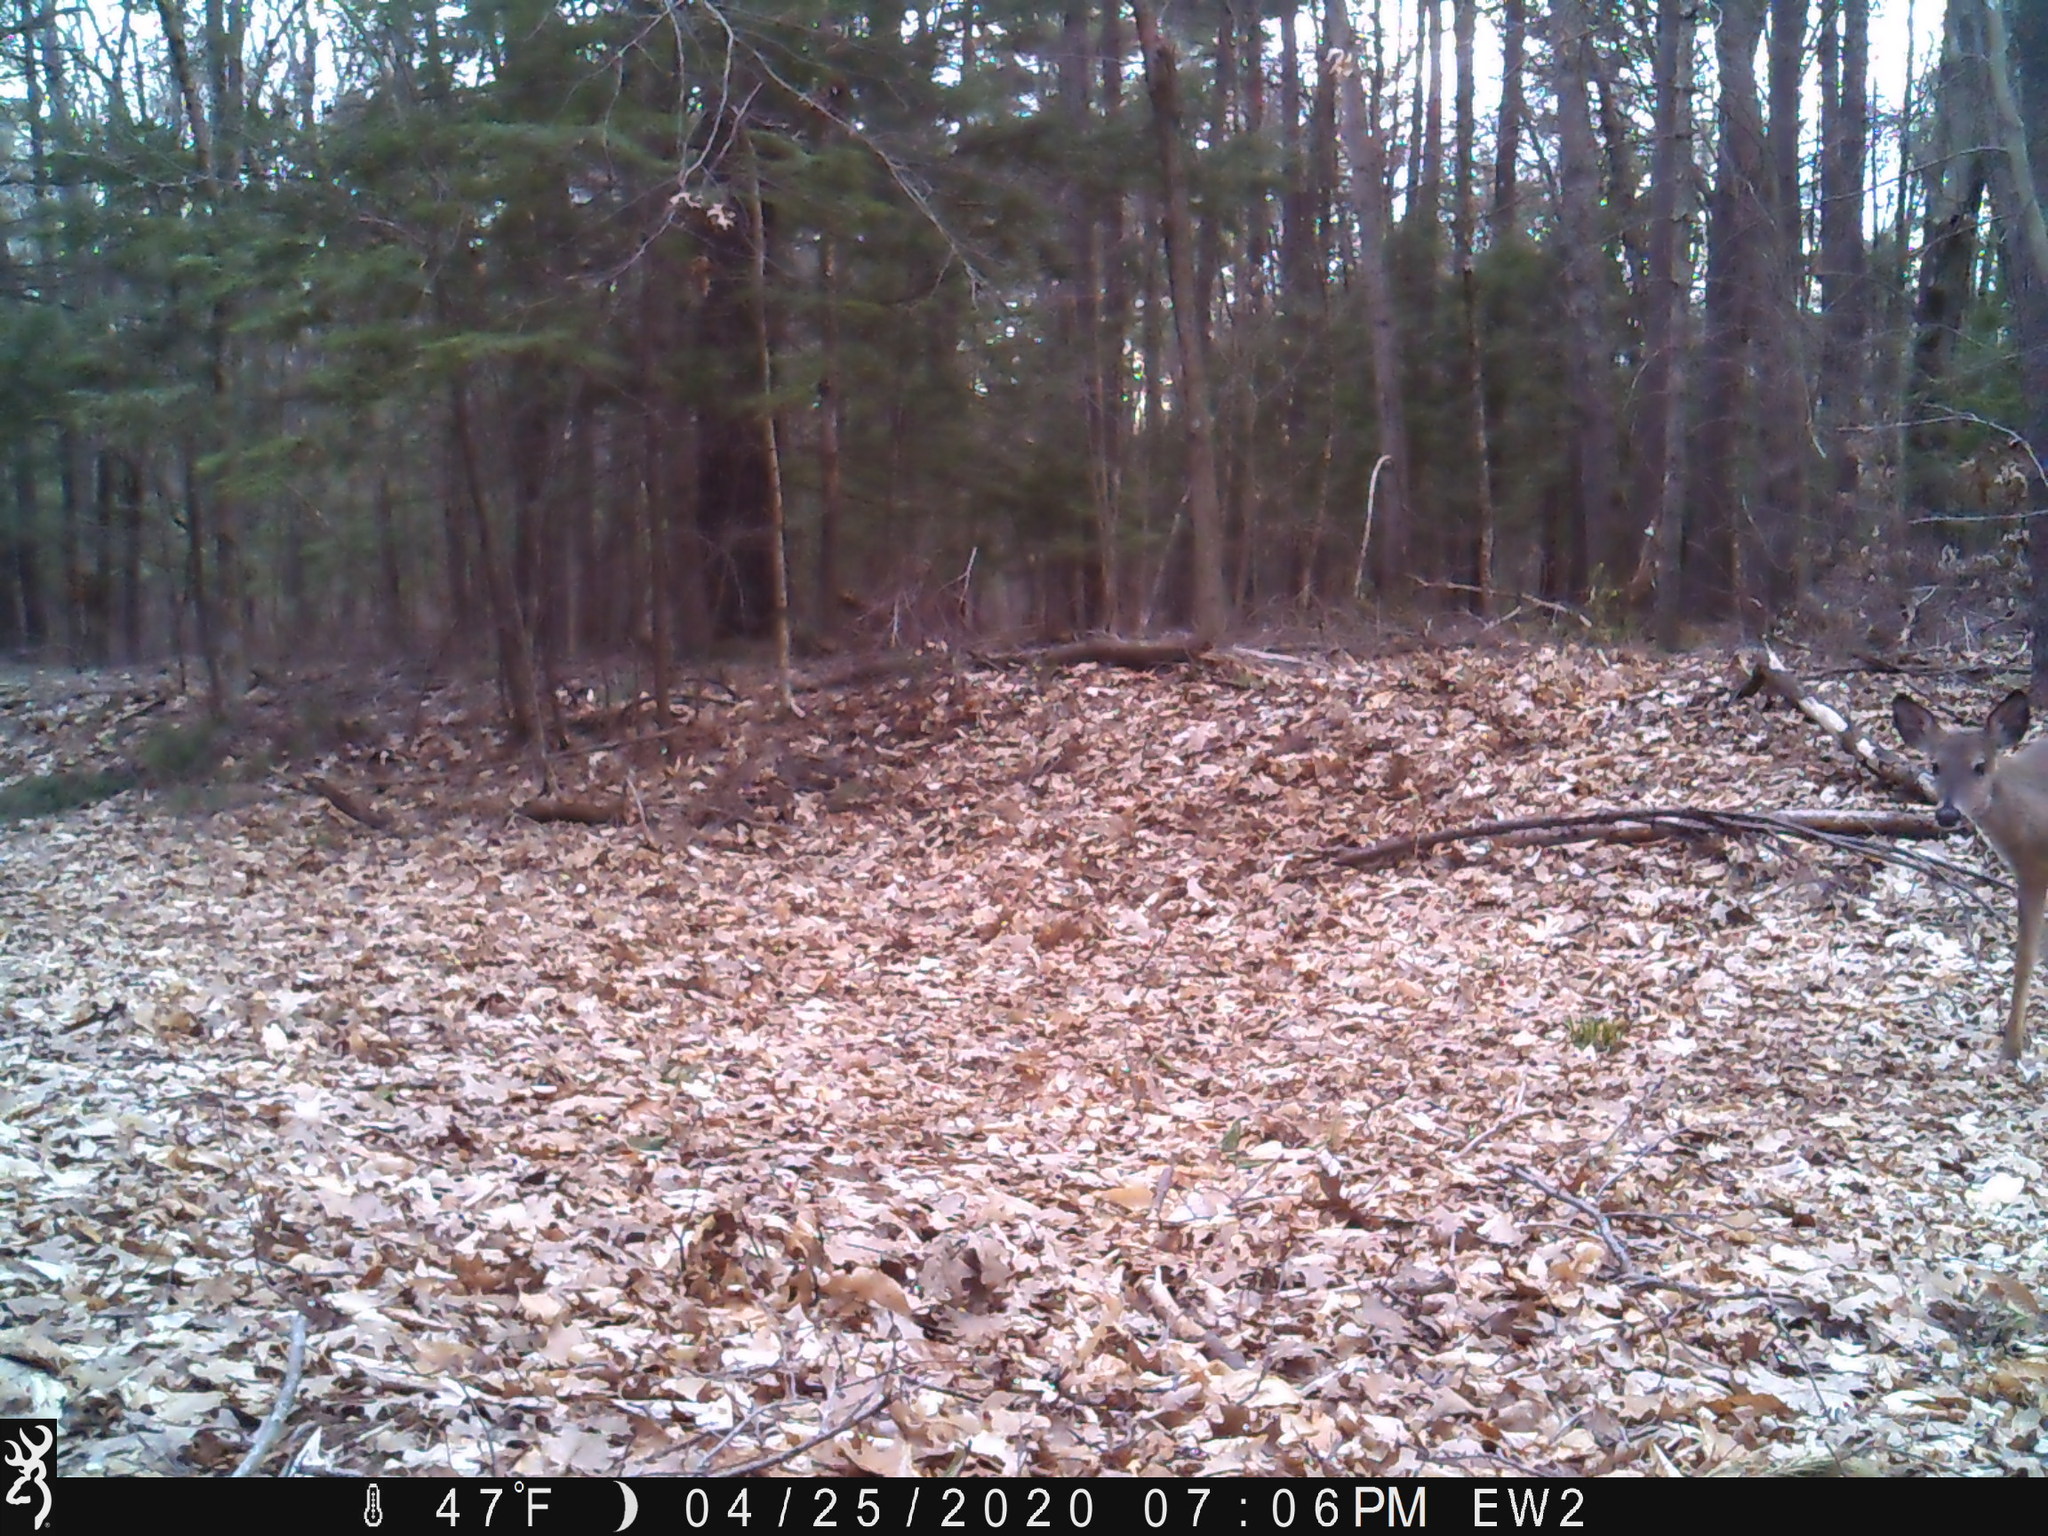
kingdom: Animalia
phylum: Chordata
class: Mammalia
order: Artiodactyla
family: Cervidae
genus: Odocoileus
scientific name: Odocoileus virginianus
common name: White-tailed deer
